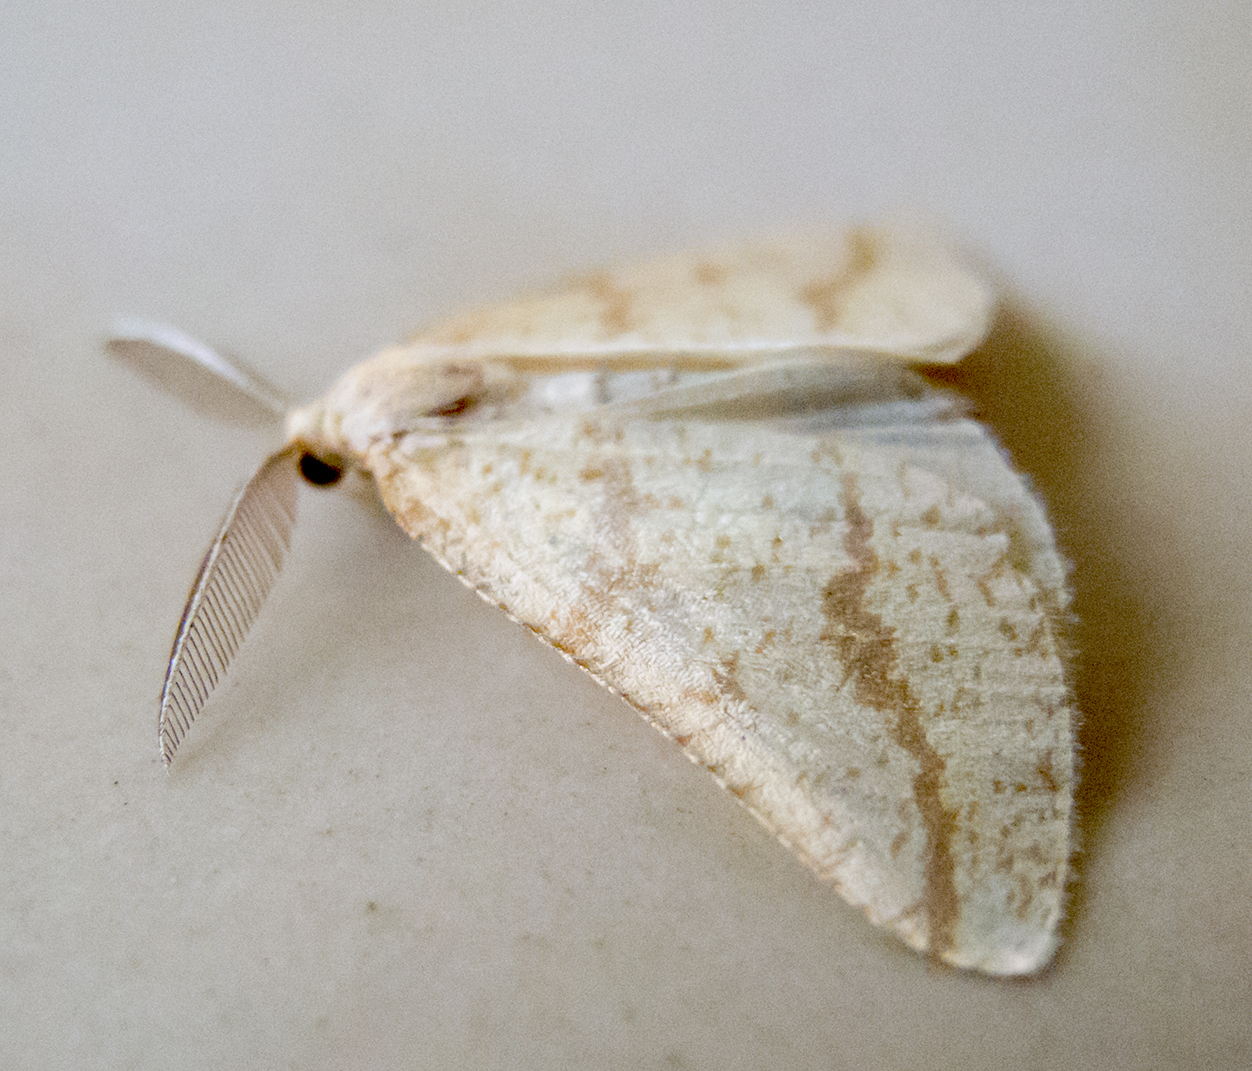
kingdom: Animalia
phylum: Arthropoda
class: Insecta
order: Lepidoptera
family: Geometridae
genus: Aspitates
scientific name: Aspitates ochrearia
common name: Yellow belle
